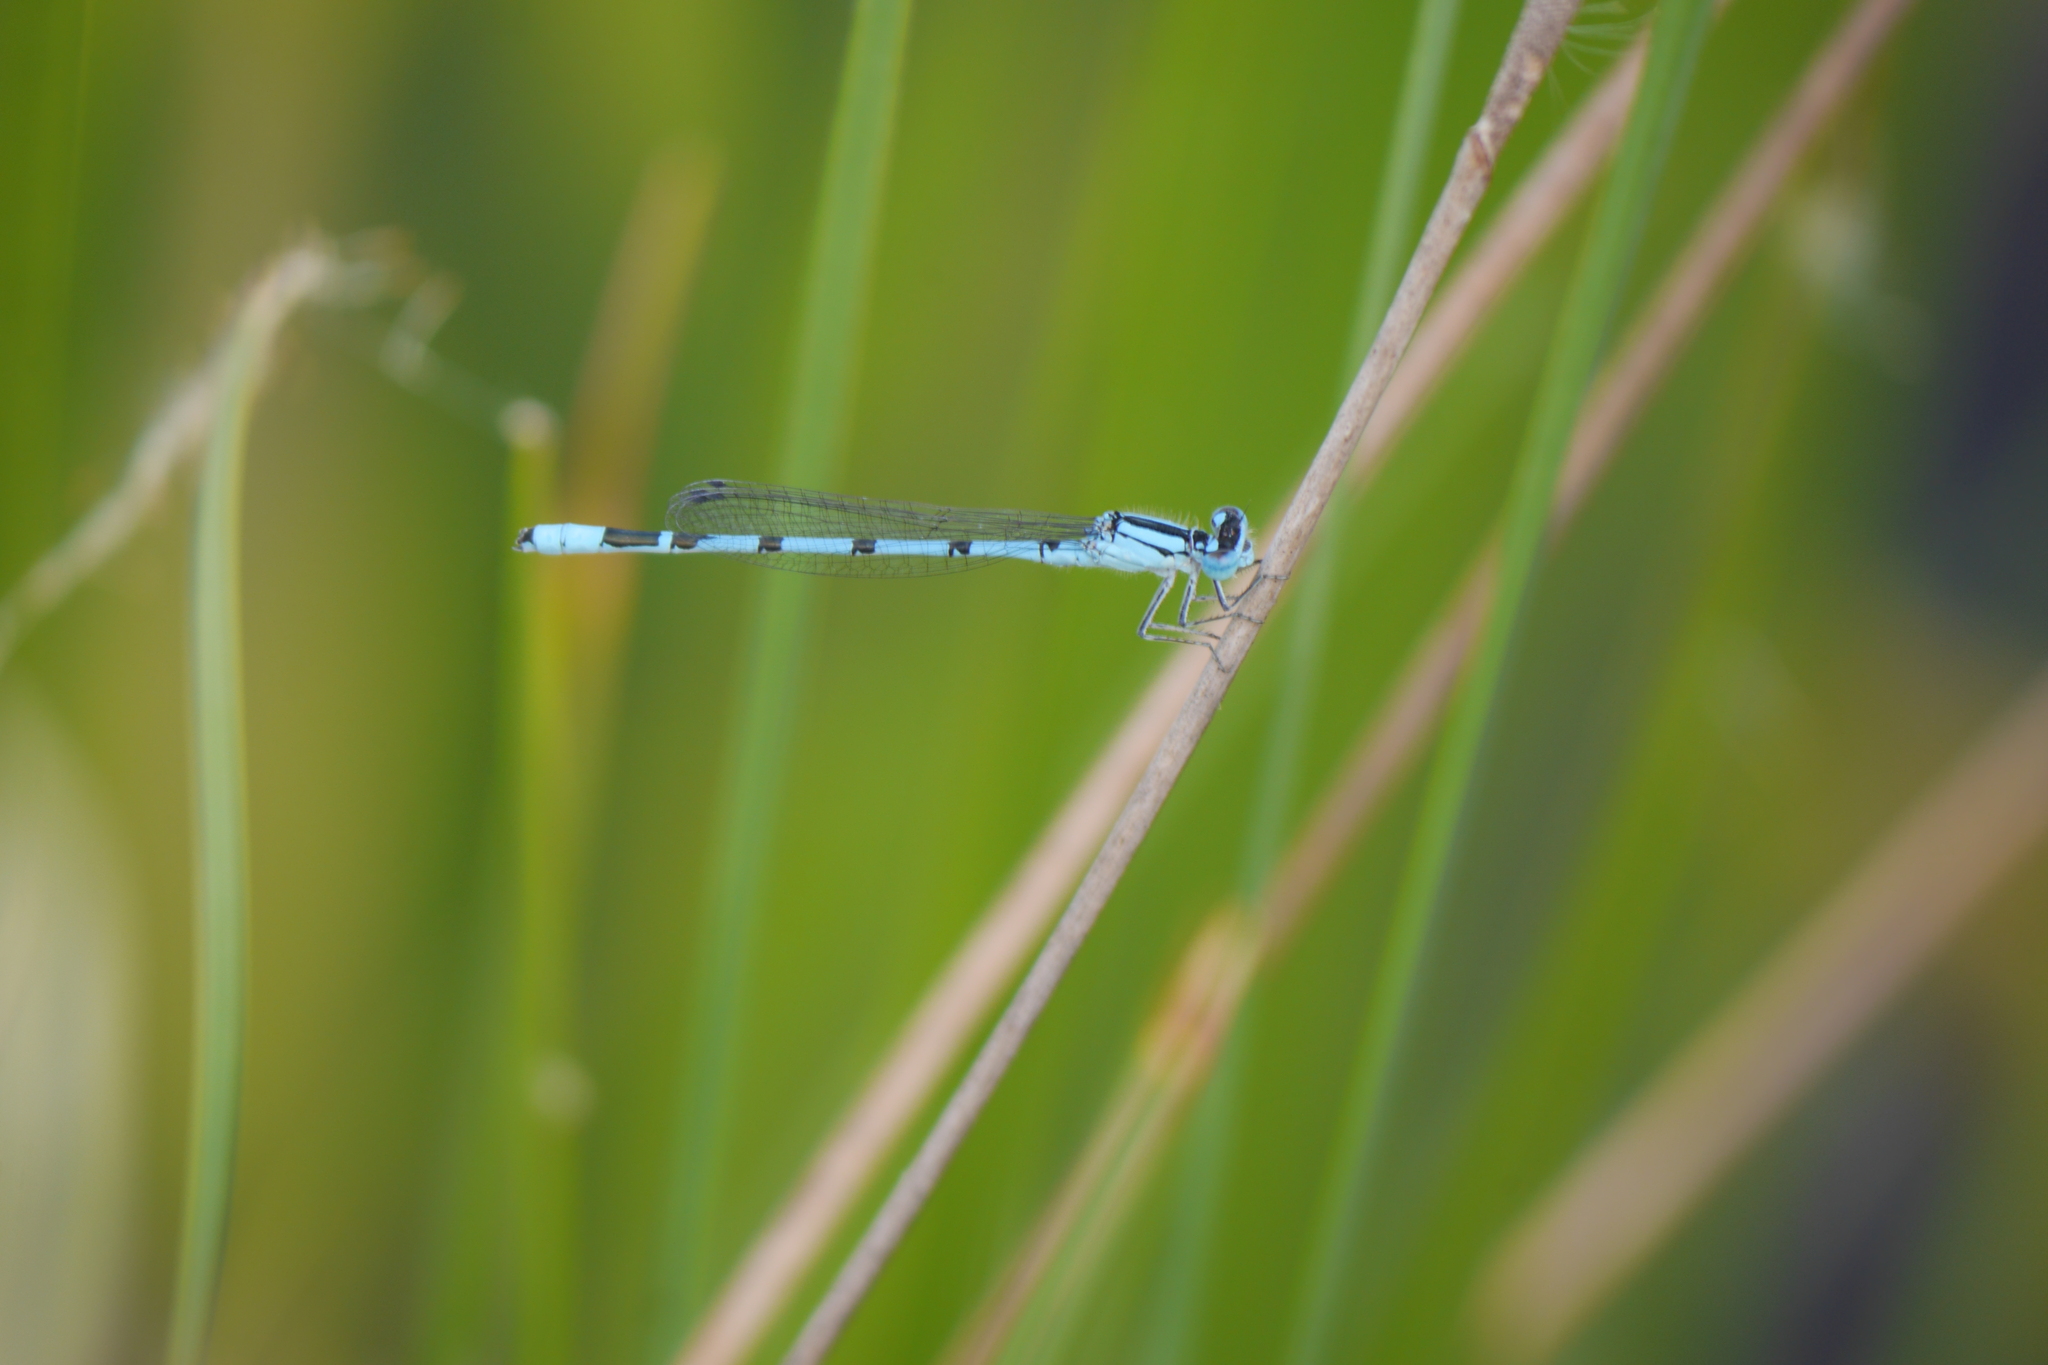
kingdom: Animalia
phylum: Arthropoda
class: Insecta
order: Odonata
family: Coenagrionidae
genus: Enallagma
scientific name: Enallagma cyathigerum
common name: Common blue damselfly
